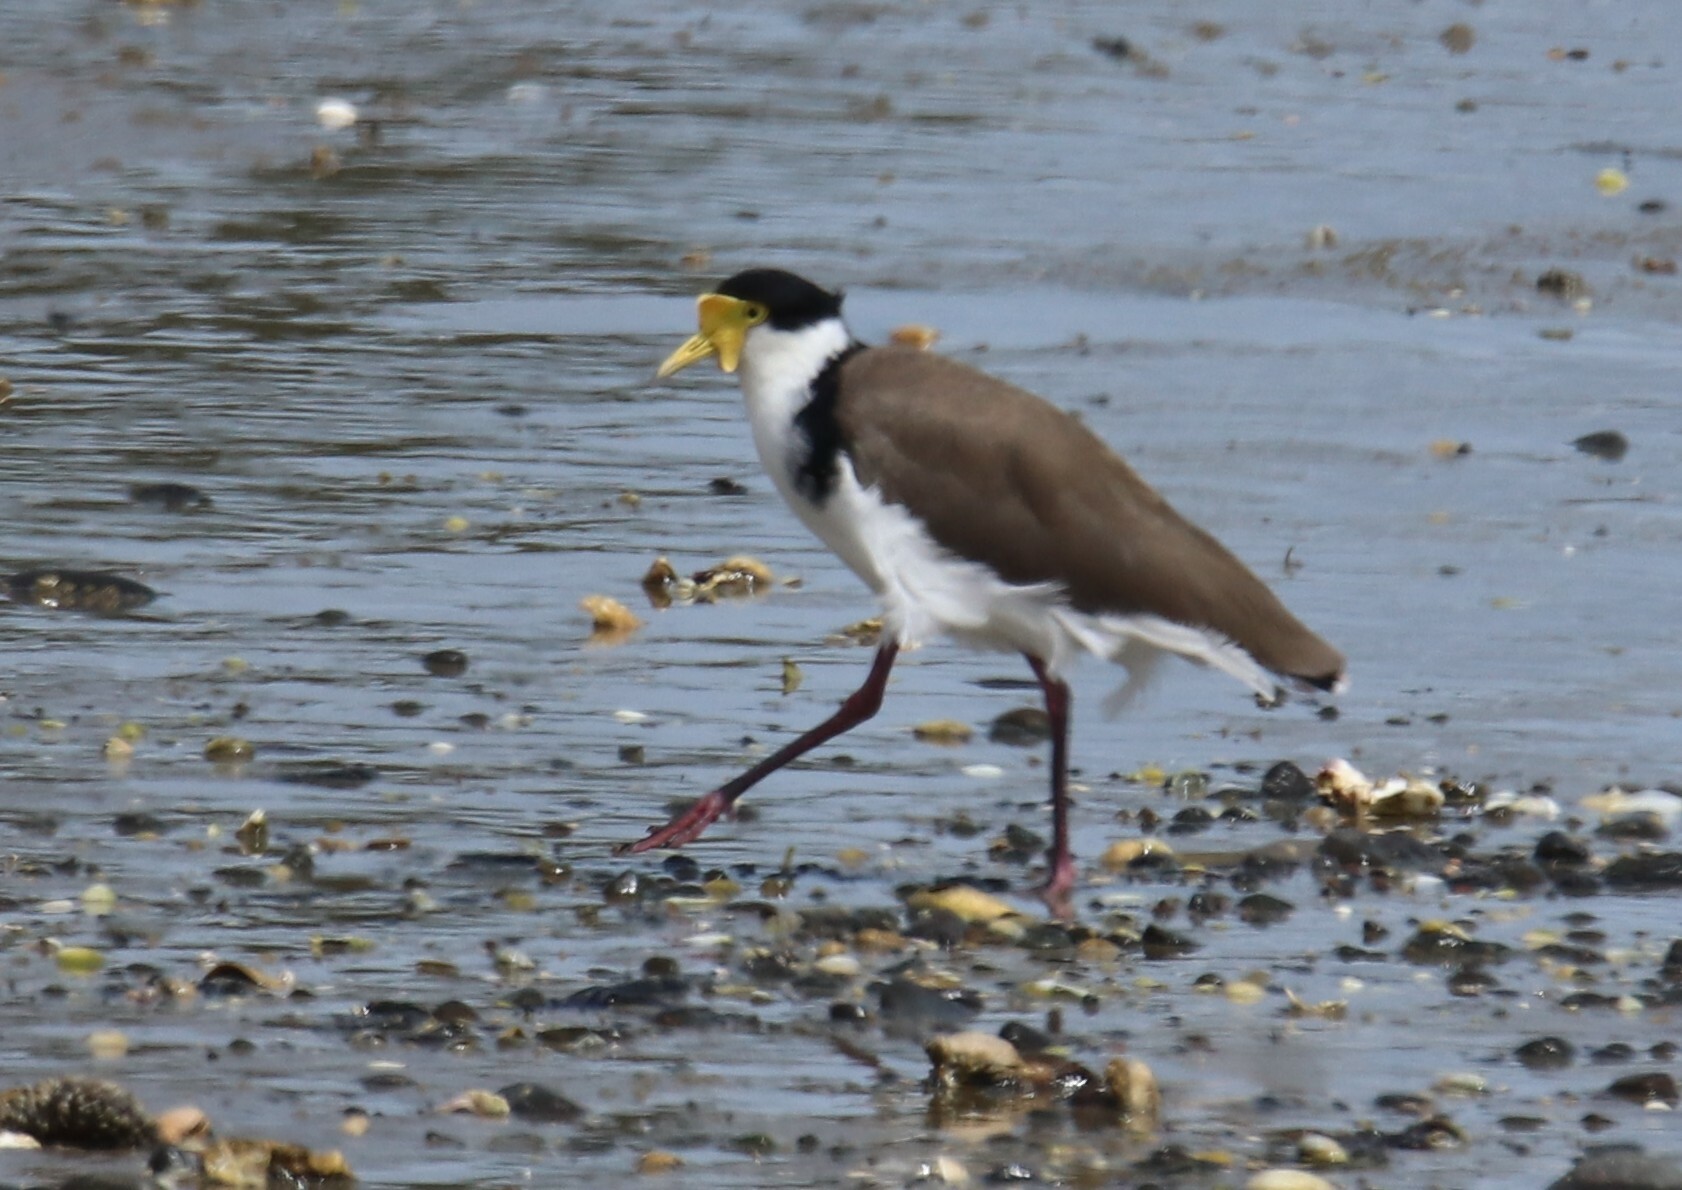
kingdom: Animalia
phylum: Chordata
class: Aves
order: Charadriiformes
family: Charadriidae
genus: Vanellus
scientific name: Vanellus miles
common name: Masked lapwing
